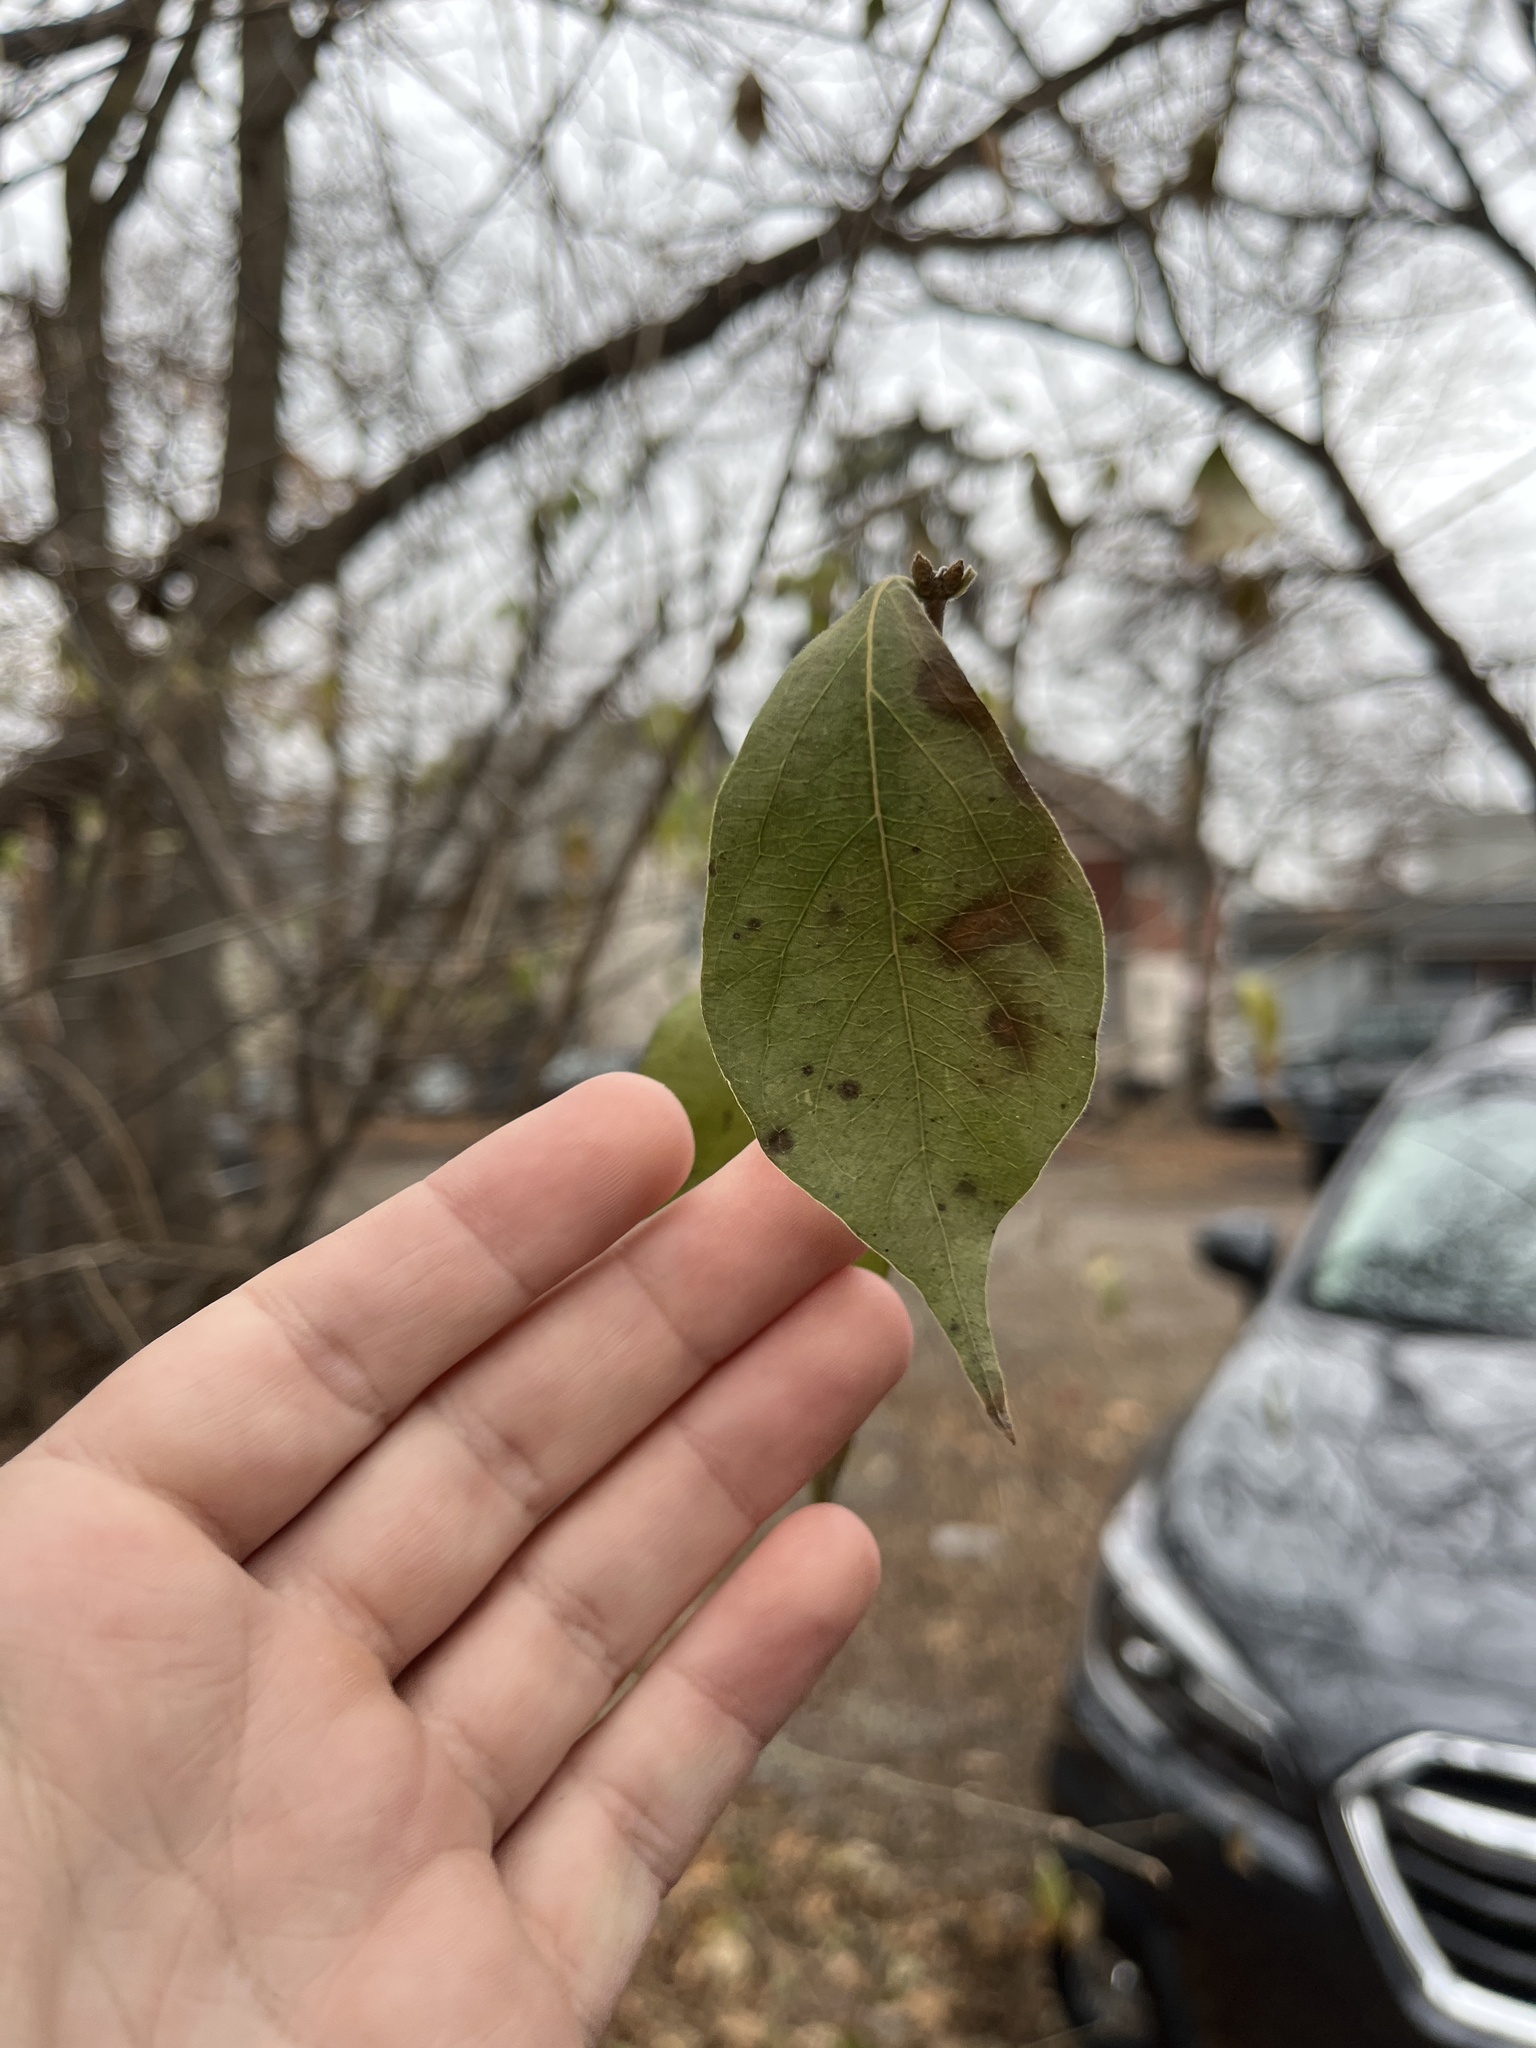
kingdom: Plantae
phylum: Tracheophyta
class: Magnoliopsida
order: Dipsacales
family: Caprifoliaceae
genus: Lonicera
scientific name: Lonicera maackii
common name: Amur honeysuckle
